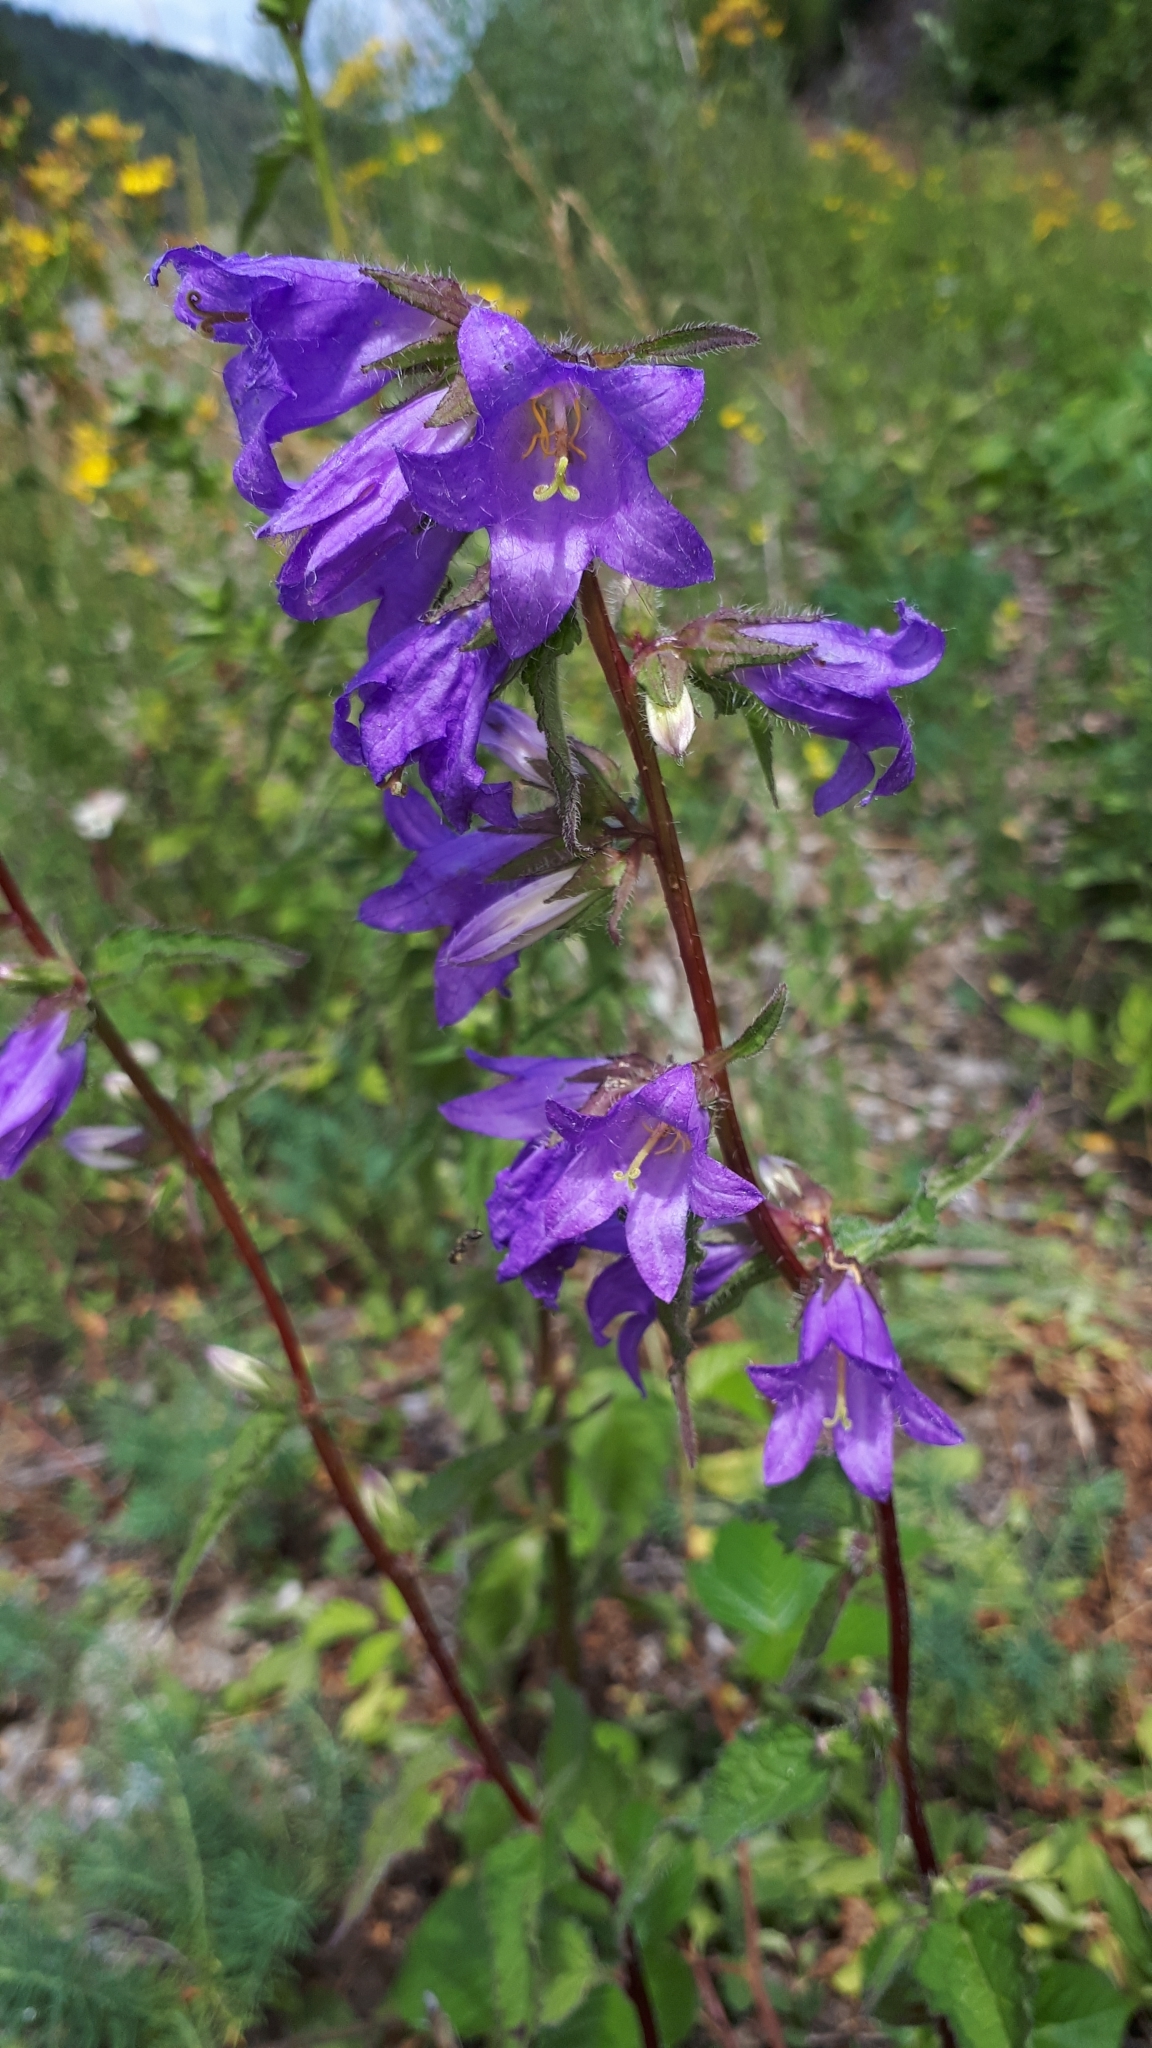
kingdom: Plantae
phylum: Tracheophyta
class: Magnoliopsida
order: Asterales
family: Campanulaceae
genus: Campanula
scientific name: Campanula trachelium
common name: Nettle-leaved bellflower
